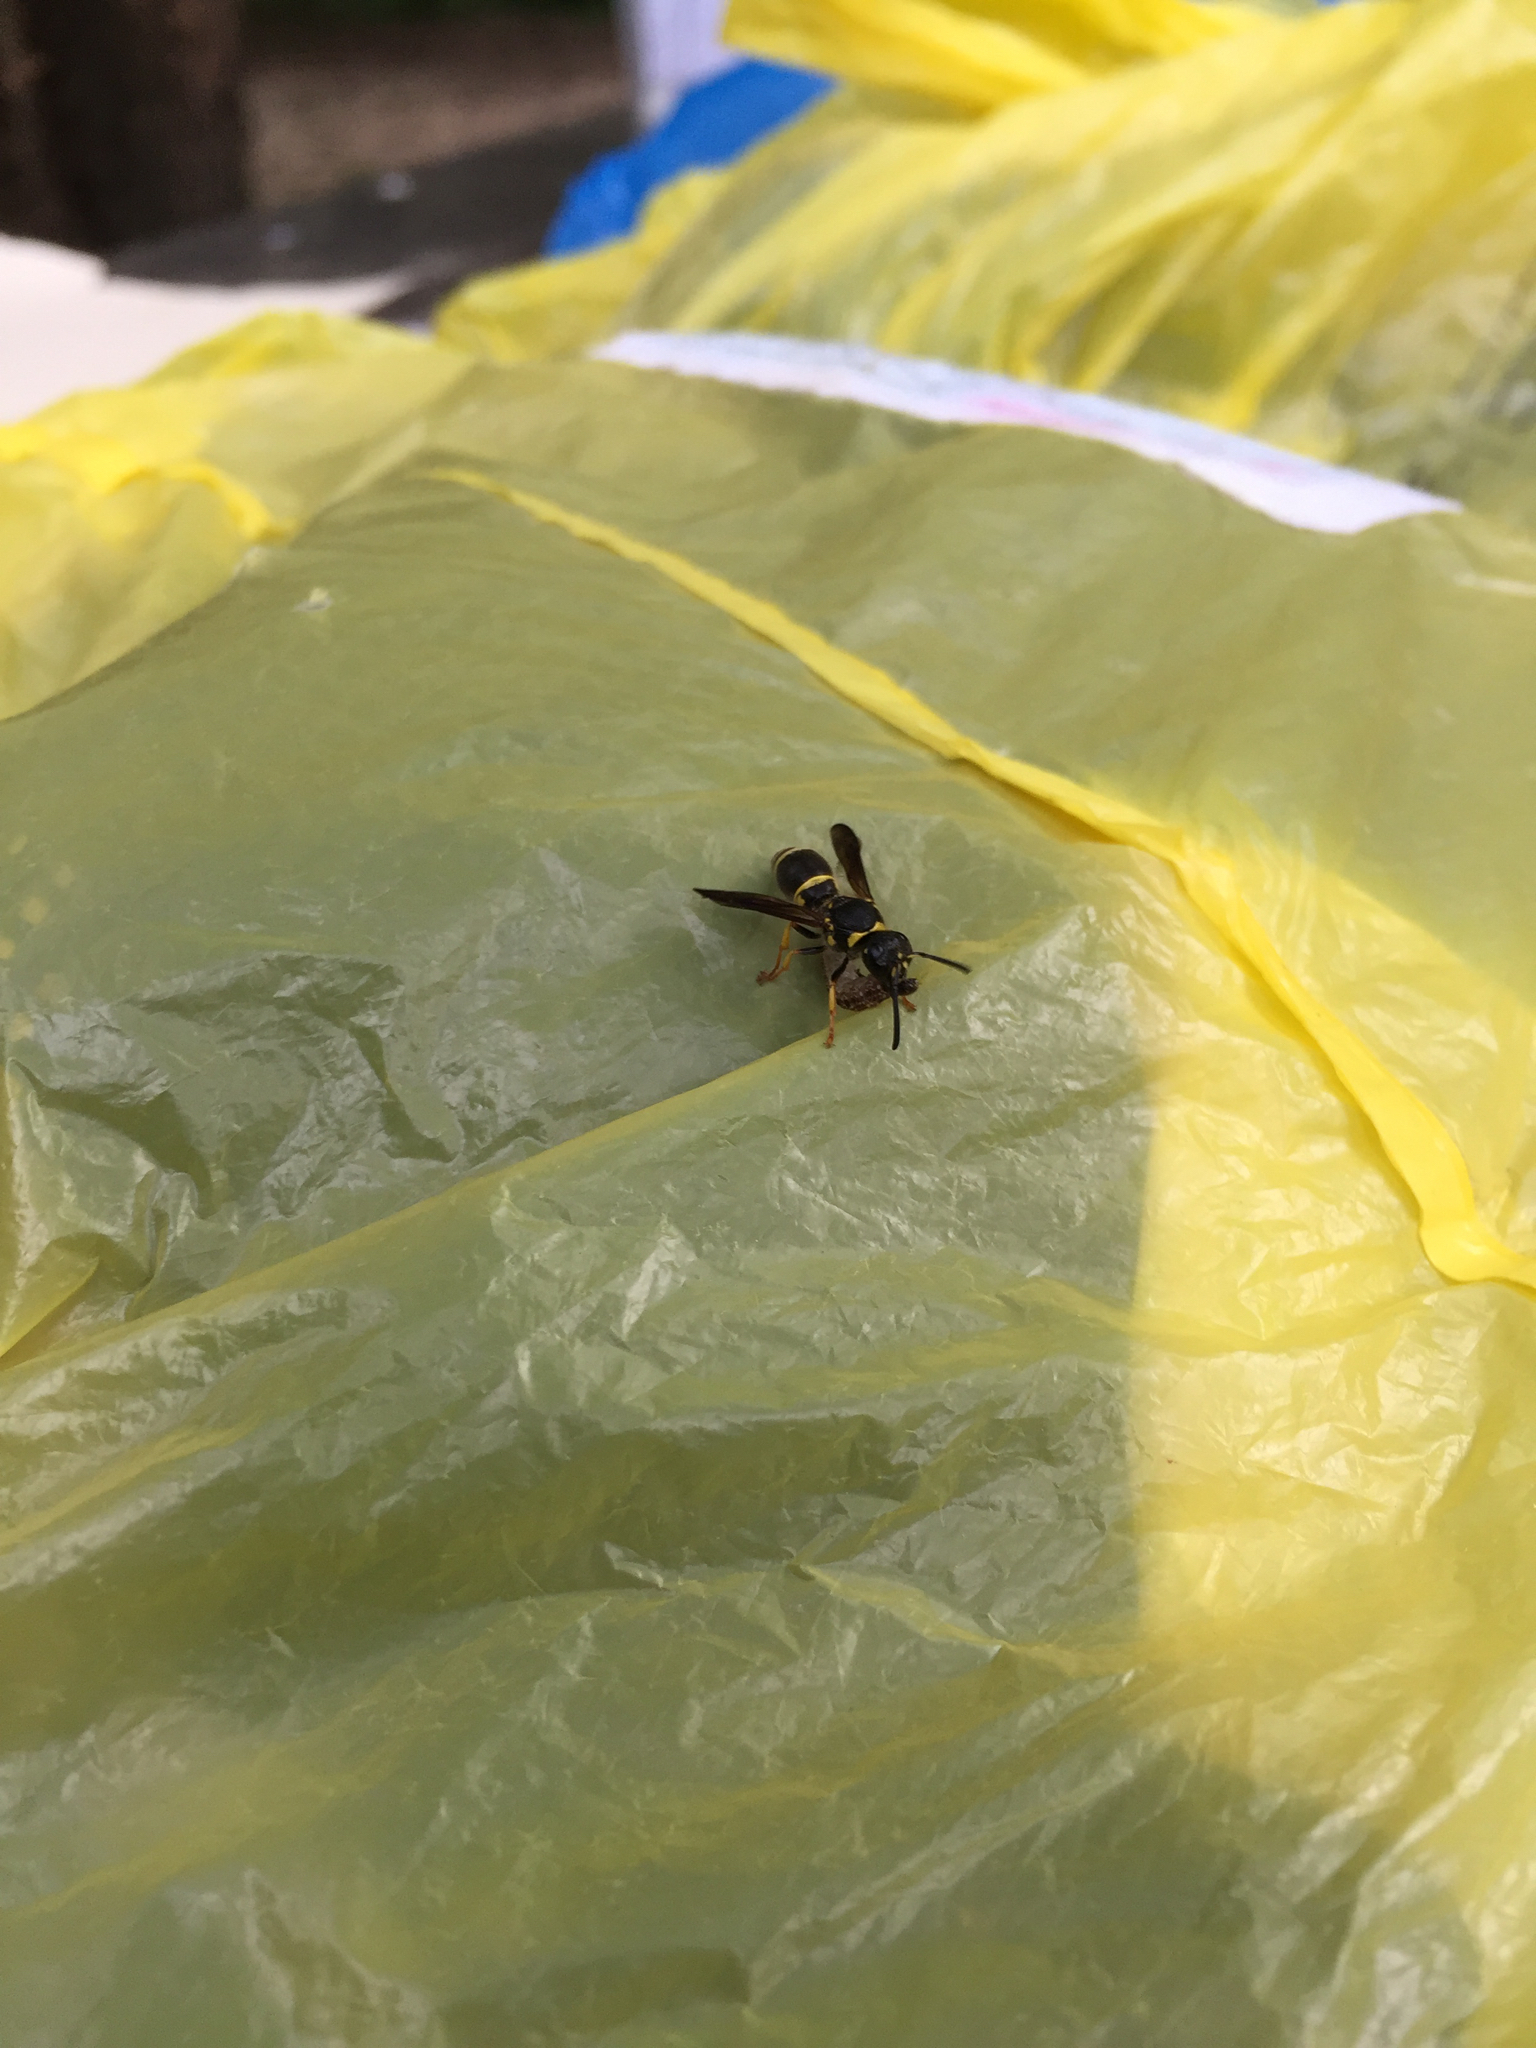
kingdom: Animalia
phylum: Arthropoda
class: Insecta
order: Hymenoptera
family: Vespidae
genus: Ancistrocerus
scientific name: Ancistrocerus campestris
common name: Smiling mason wasp
